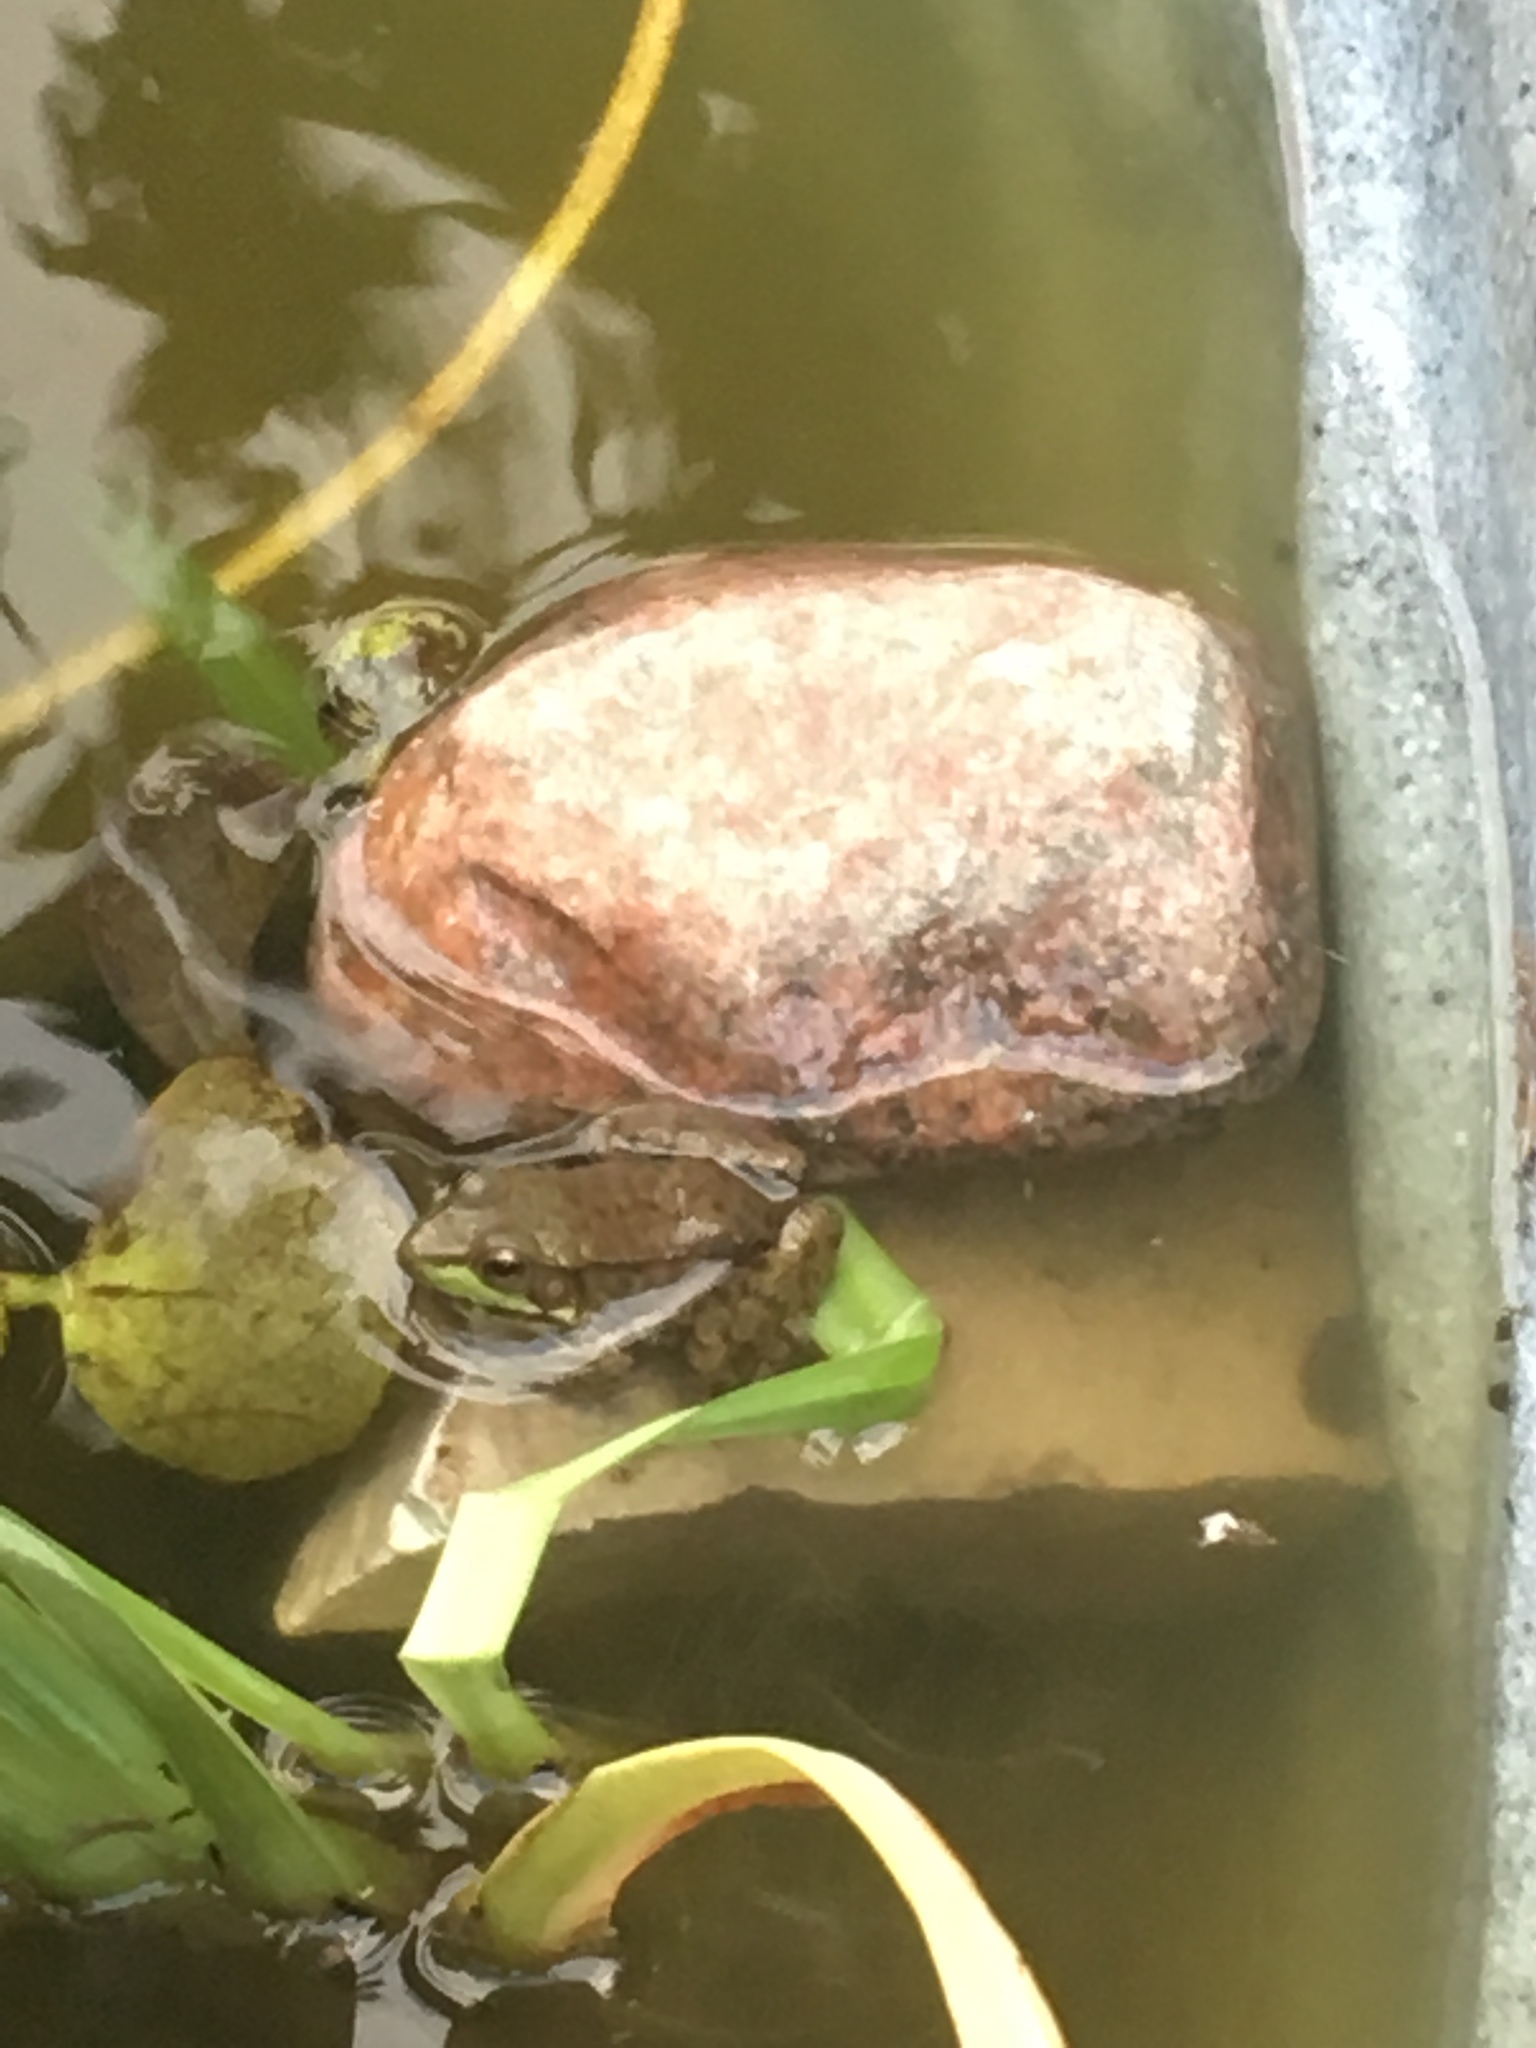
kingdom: Animalia
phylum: Chordata
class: Amphibia
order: Anura
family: Ranidae
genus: Lithobates
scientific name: Lithobates clamitans
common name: Green frog
